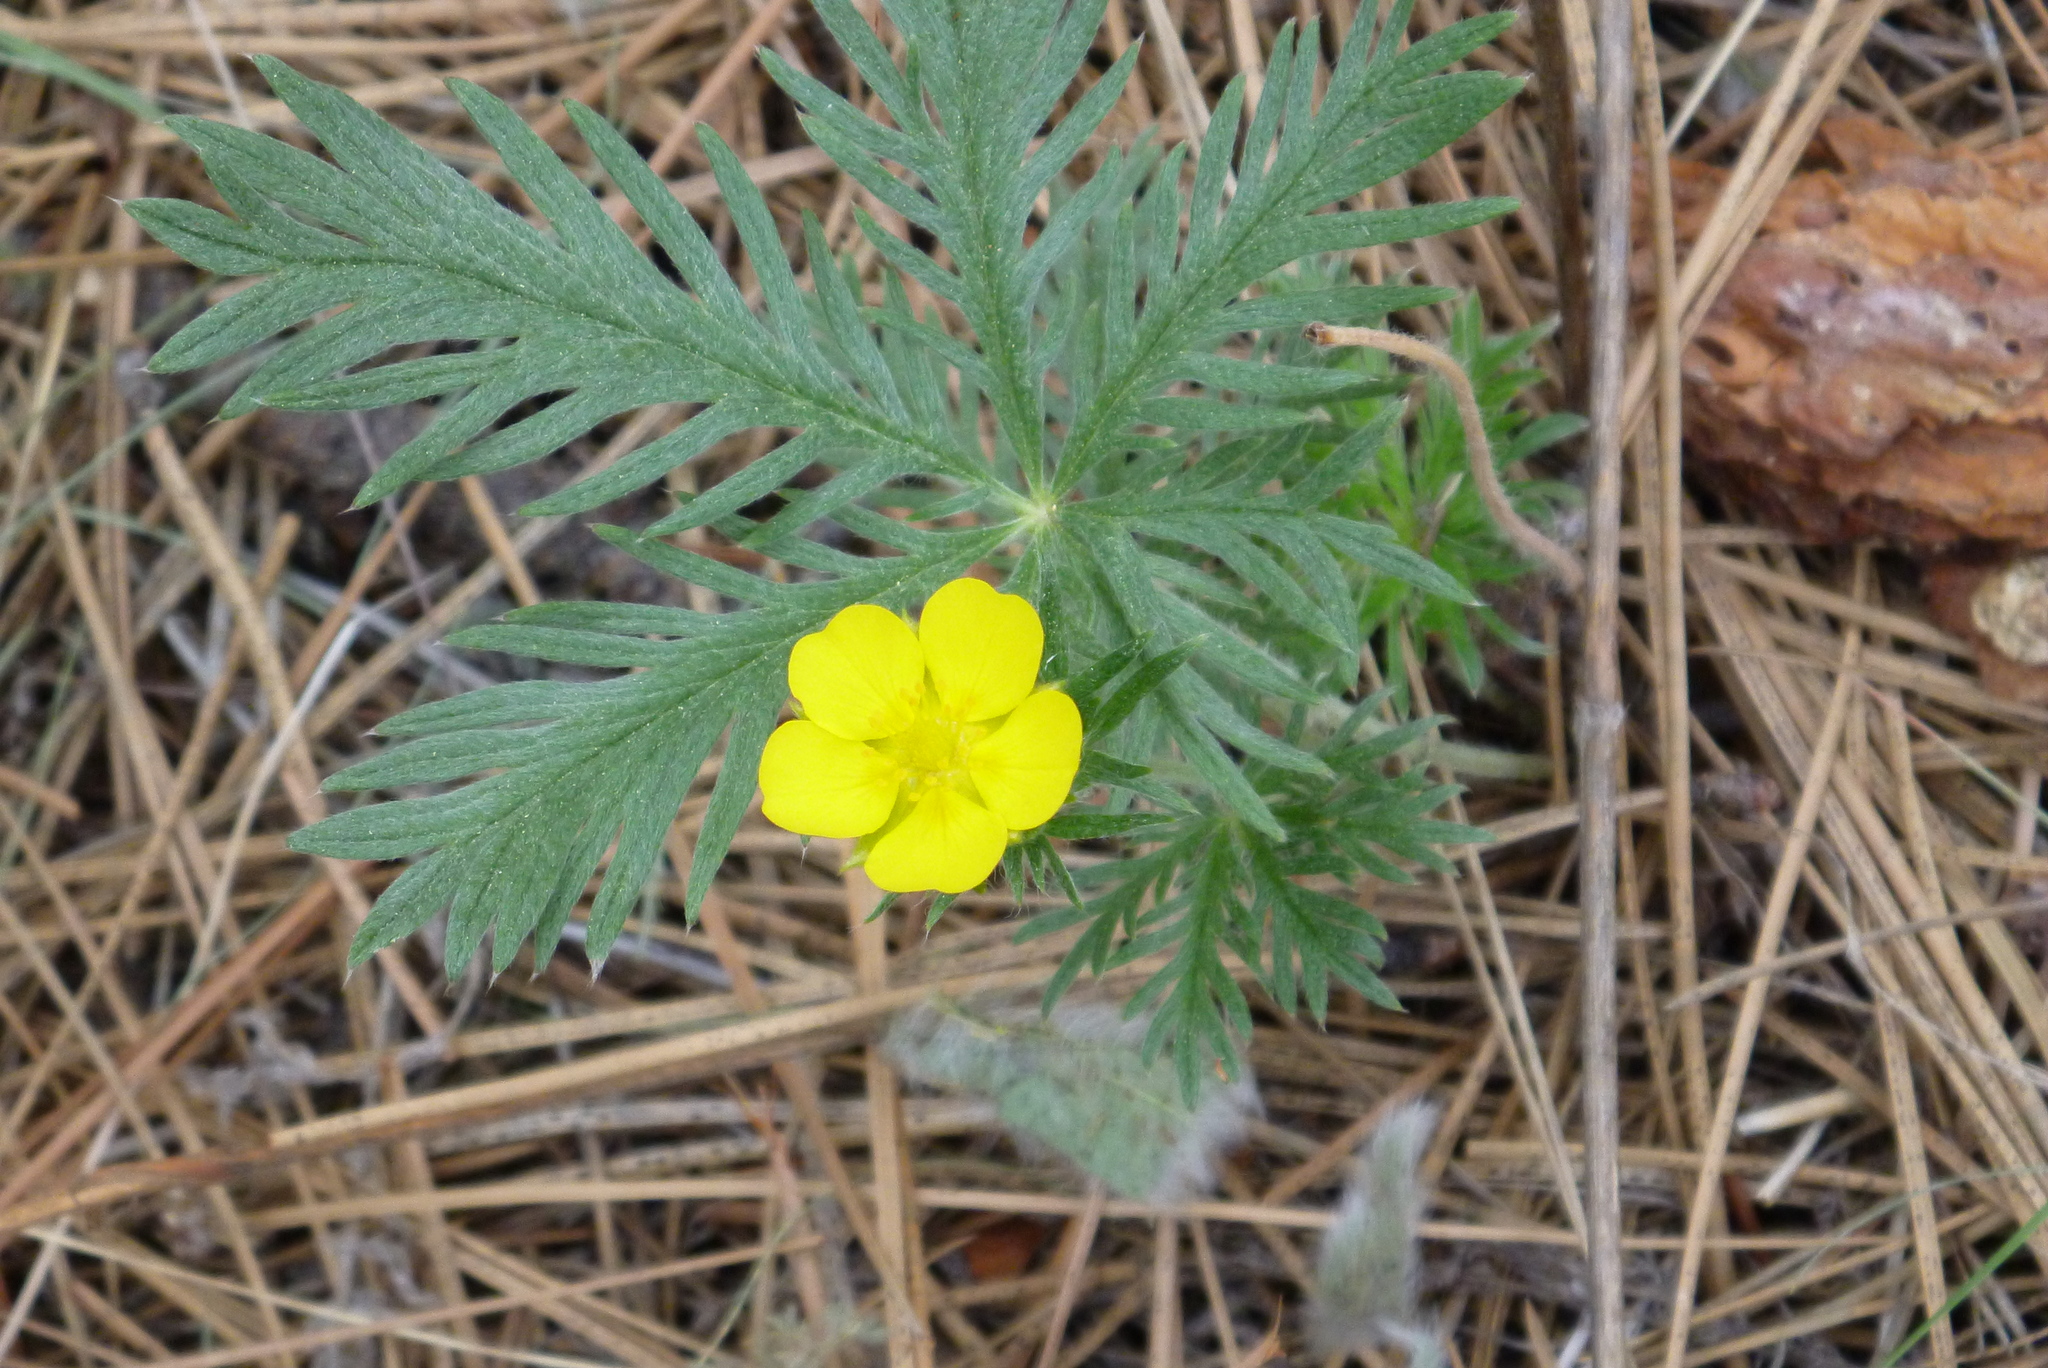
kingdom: Plantae
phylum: Tracheophyta
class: Magnoliopsida
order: Rosales
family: Rosaceae
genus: Potentilla
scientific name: Potentilla gracilis
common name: Graceful cinquefoil
